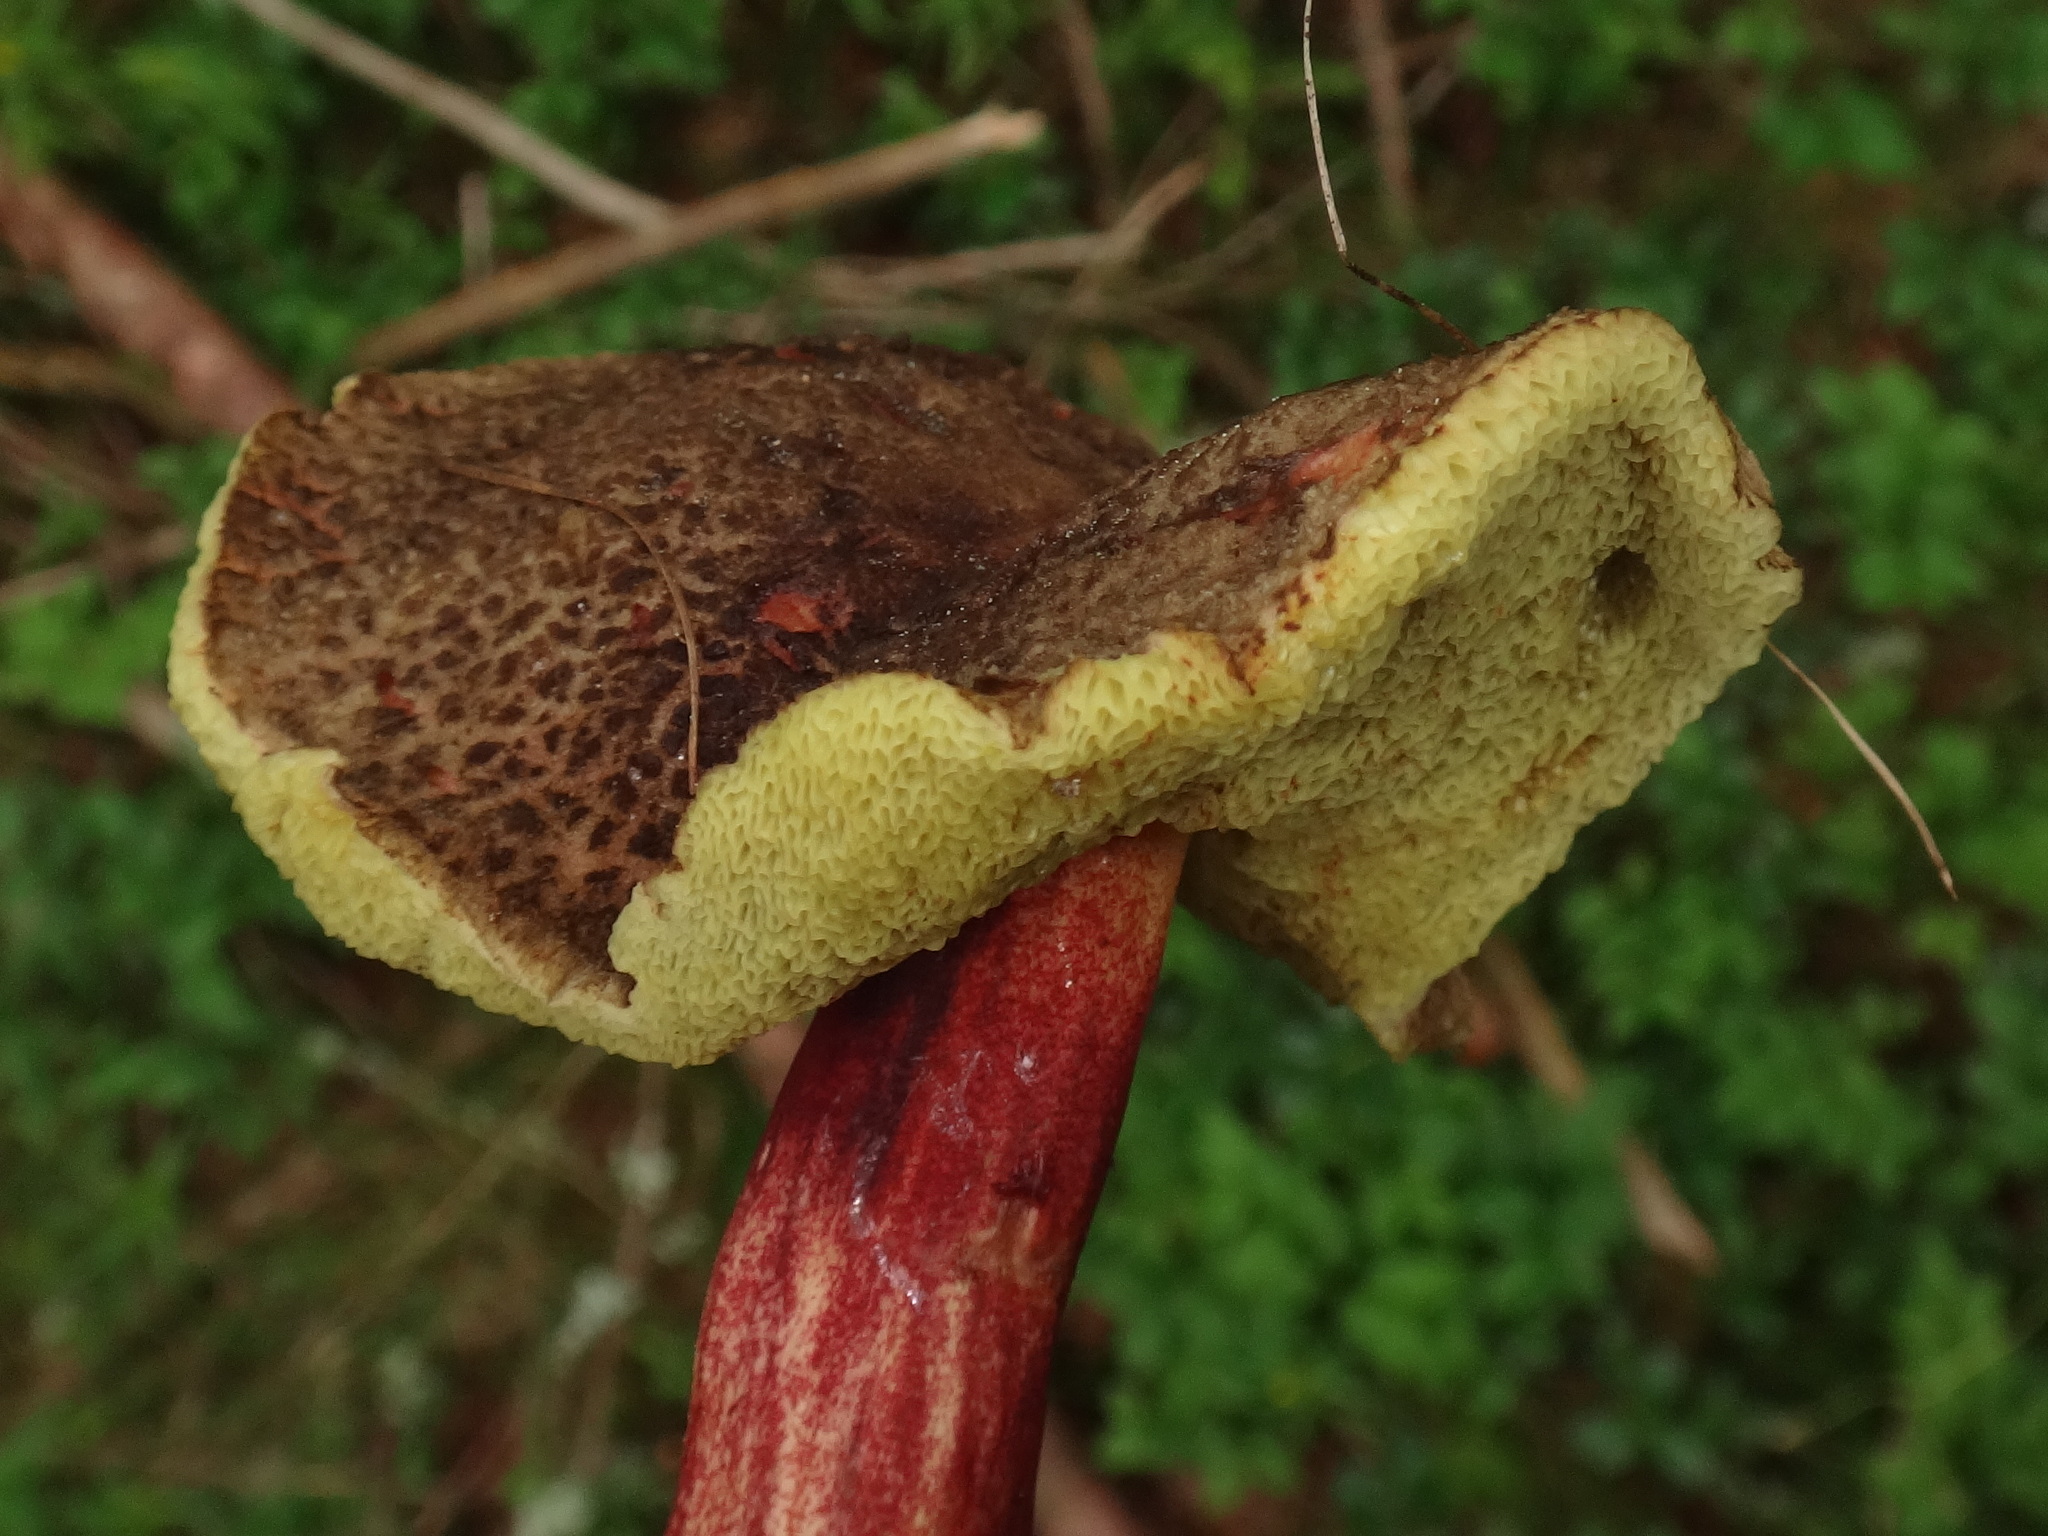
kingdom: Fungi
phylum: Basidiomycota
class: Agaricomycetes
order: Boletales
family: Boletaceae
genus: Xerocomellus
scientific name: Xerocomellus chrysenteron
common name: Red-cracking bolete
